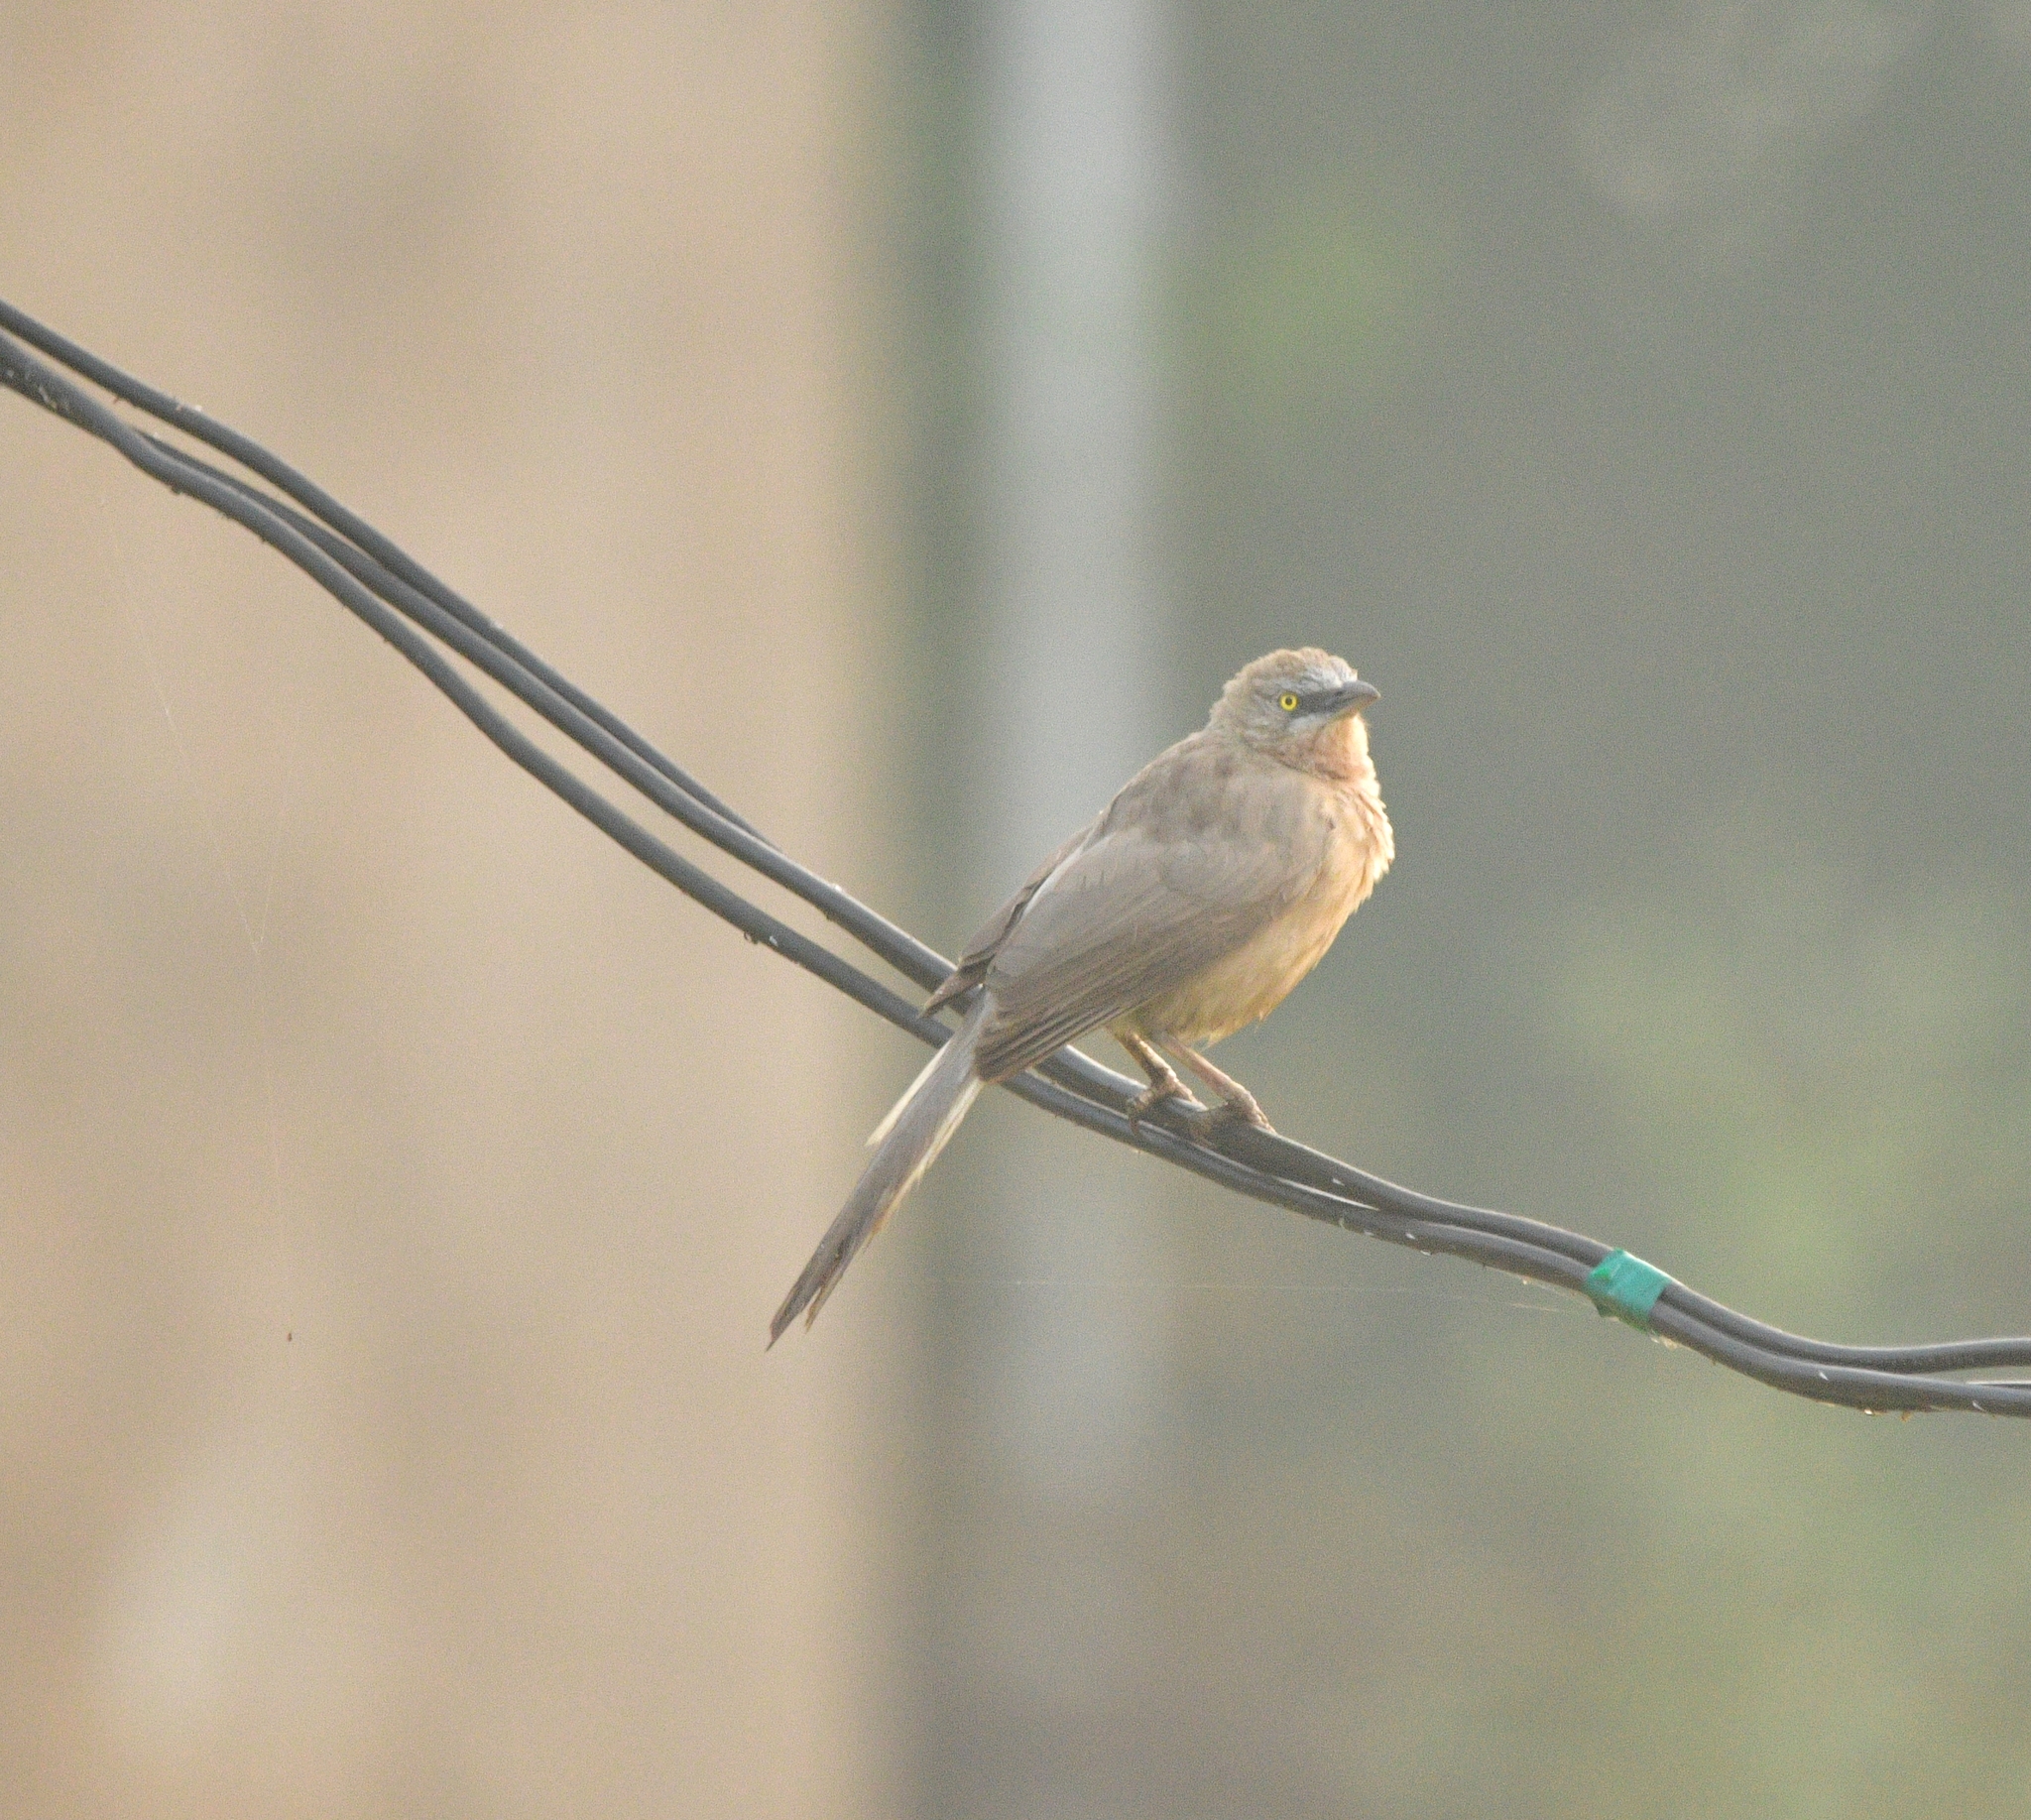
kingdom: Animalia
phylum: Chordata
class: Aves
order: Passeriformes
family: Leiothrichidae
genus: Turdoides
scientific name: Turdoides malcolmi
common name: Large grey babbler
